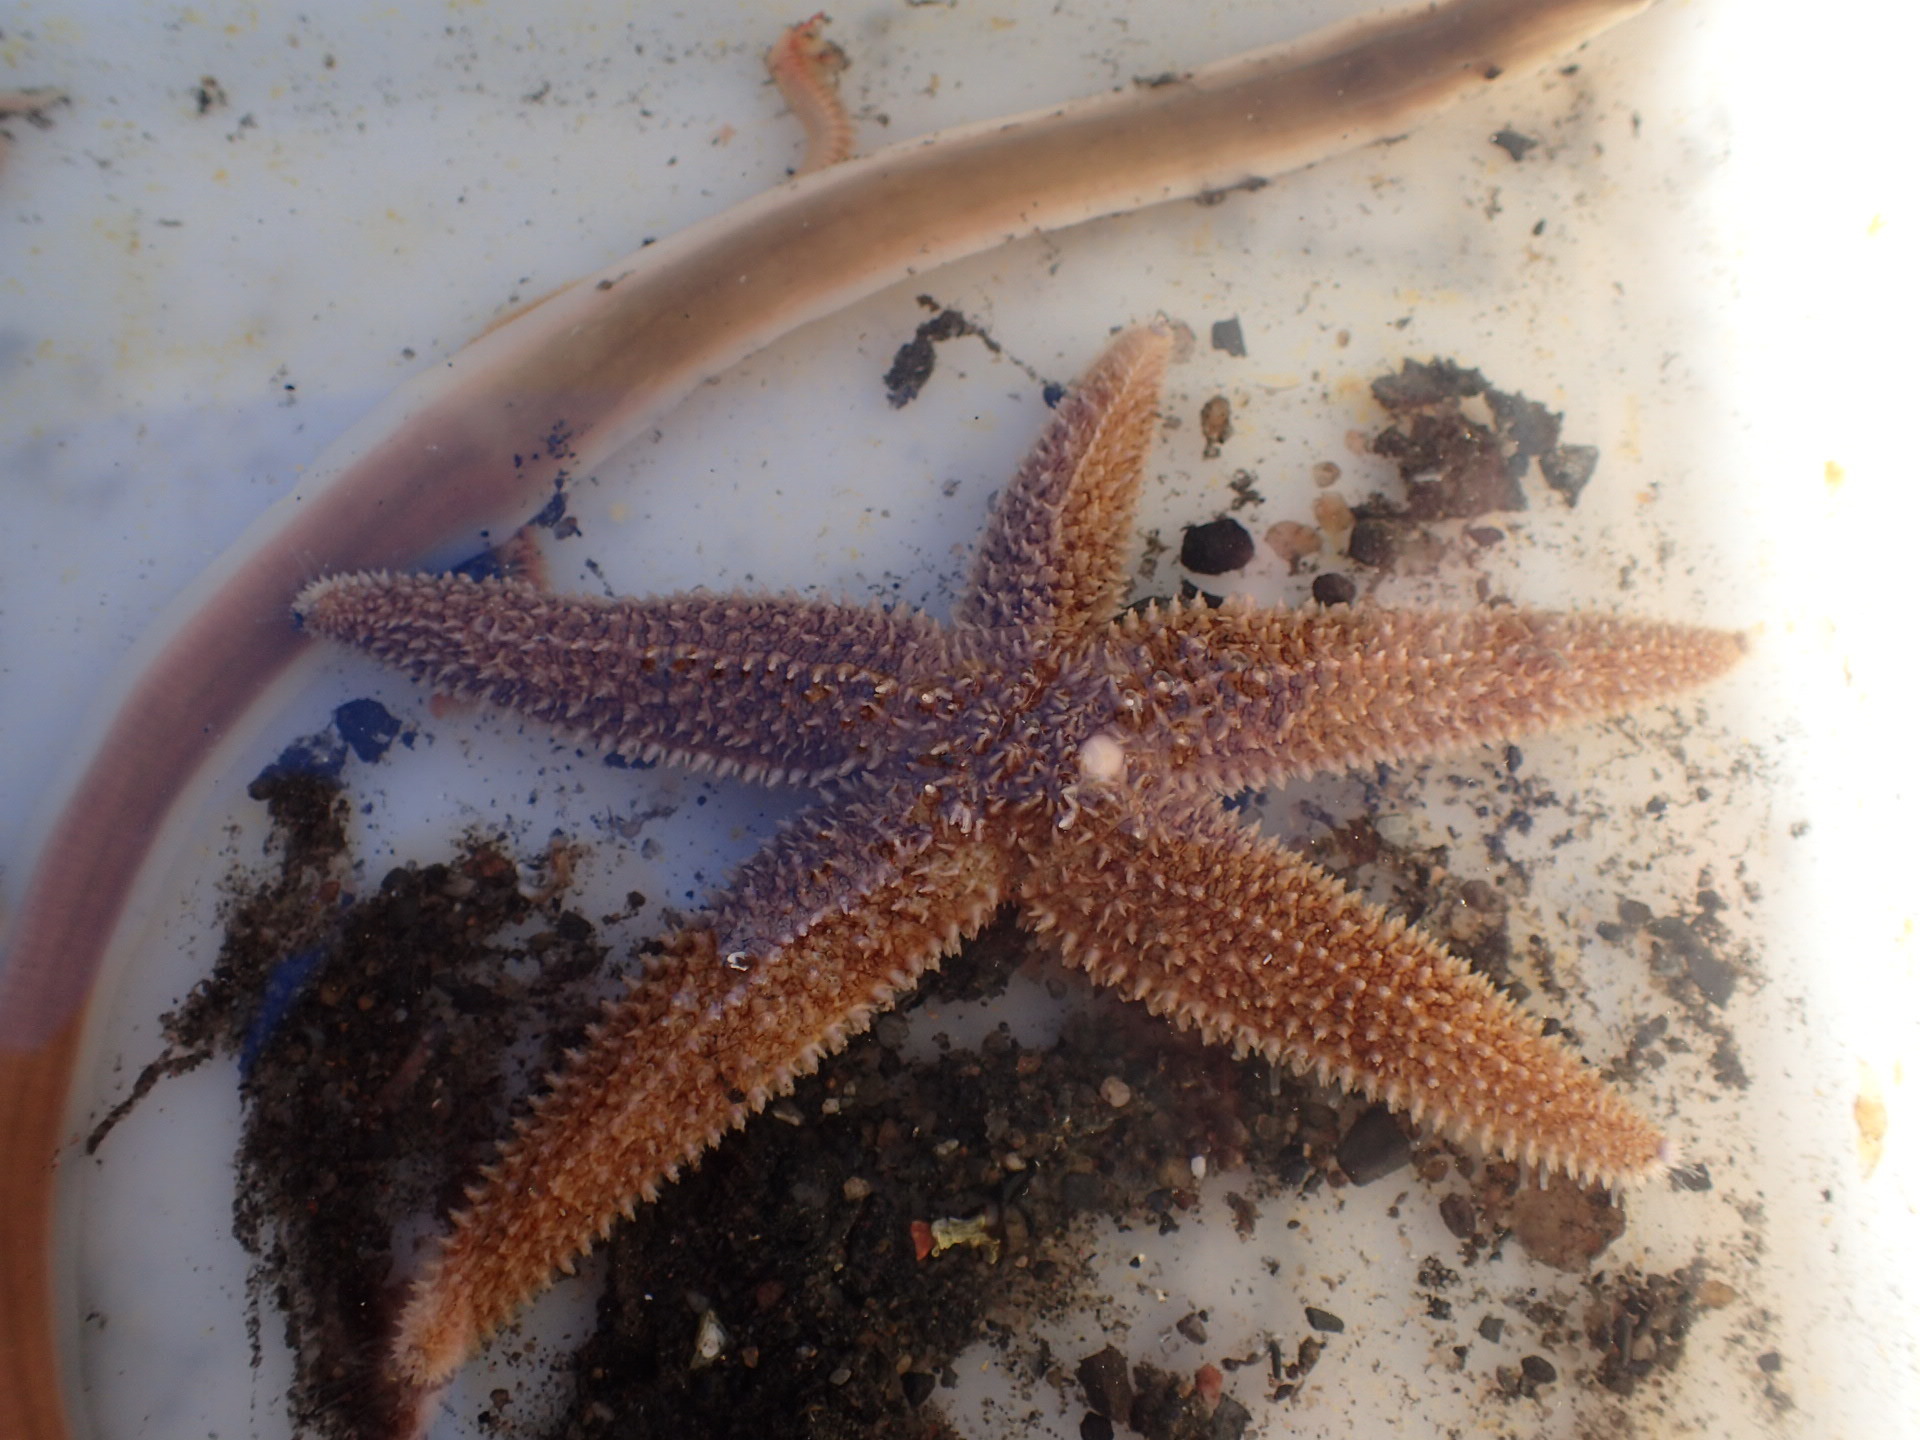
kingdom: Animalia
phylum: Echinodermata
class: Asteroidea
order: Forcipulatida
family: Asteriidae
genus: Asterias
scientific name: Asterias rubens
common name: Common starfish
